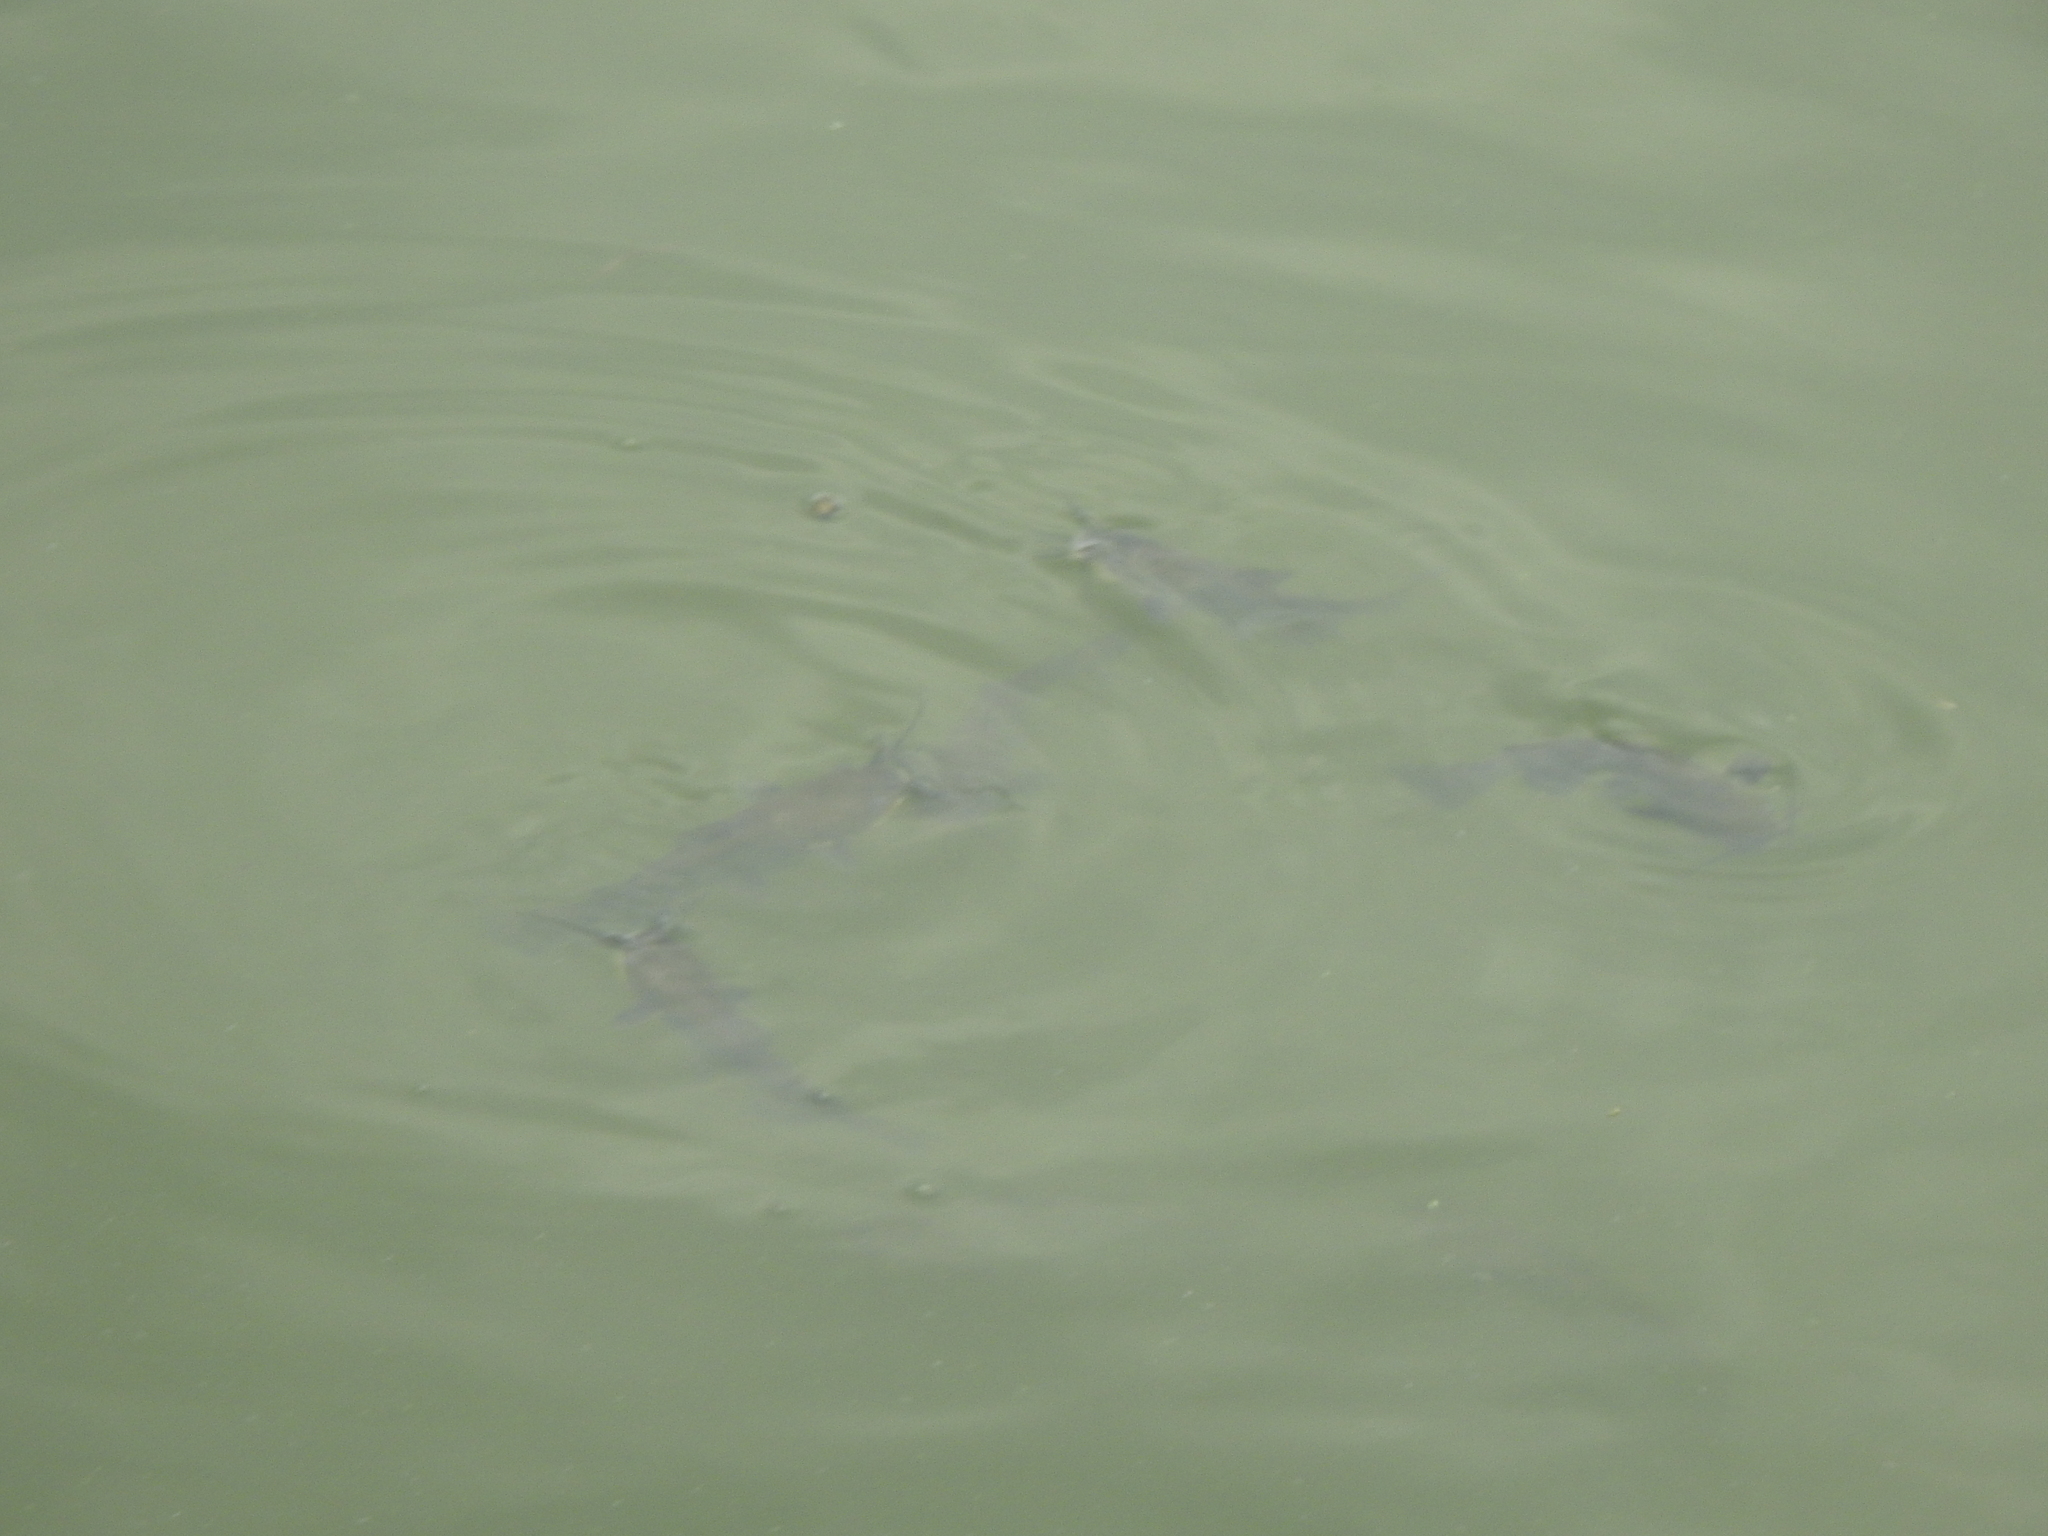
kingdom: Animalia
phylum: Chordata
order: Siluriformes
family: Ictaluridae
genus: Ameiurus
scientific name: Ameiurus melas
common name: Black bullhead
